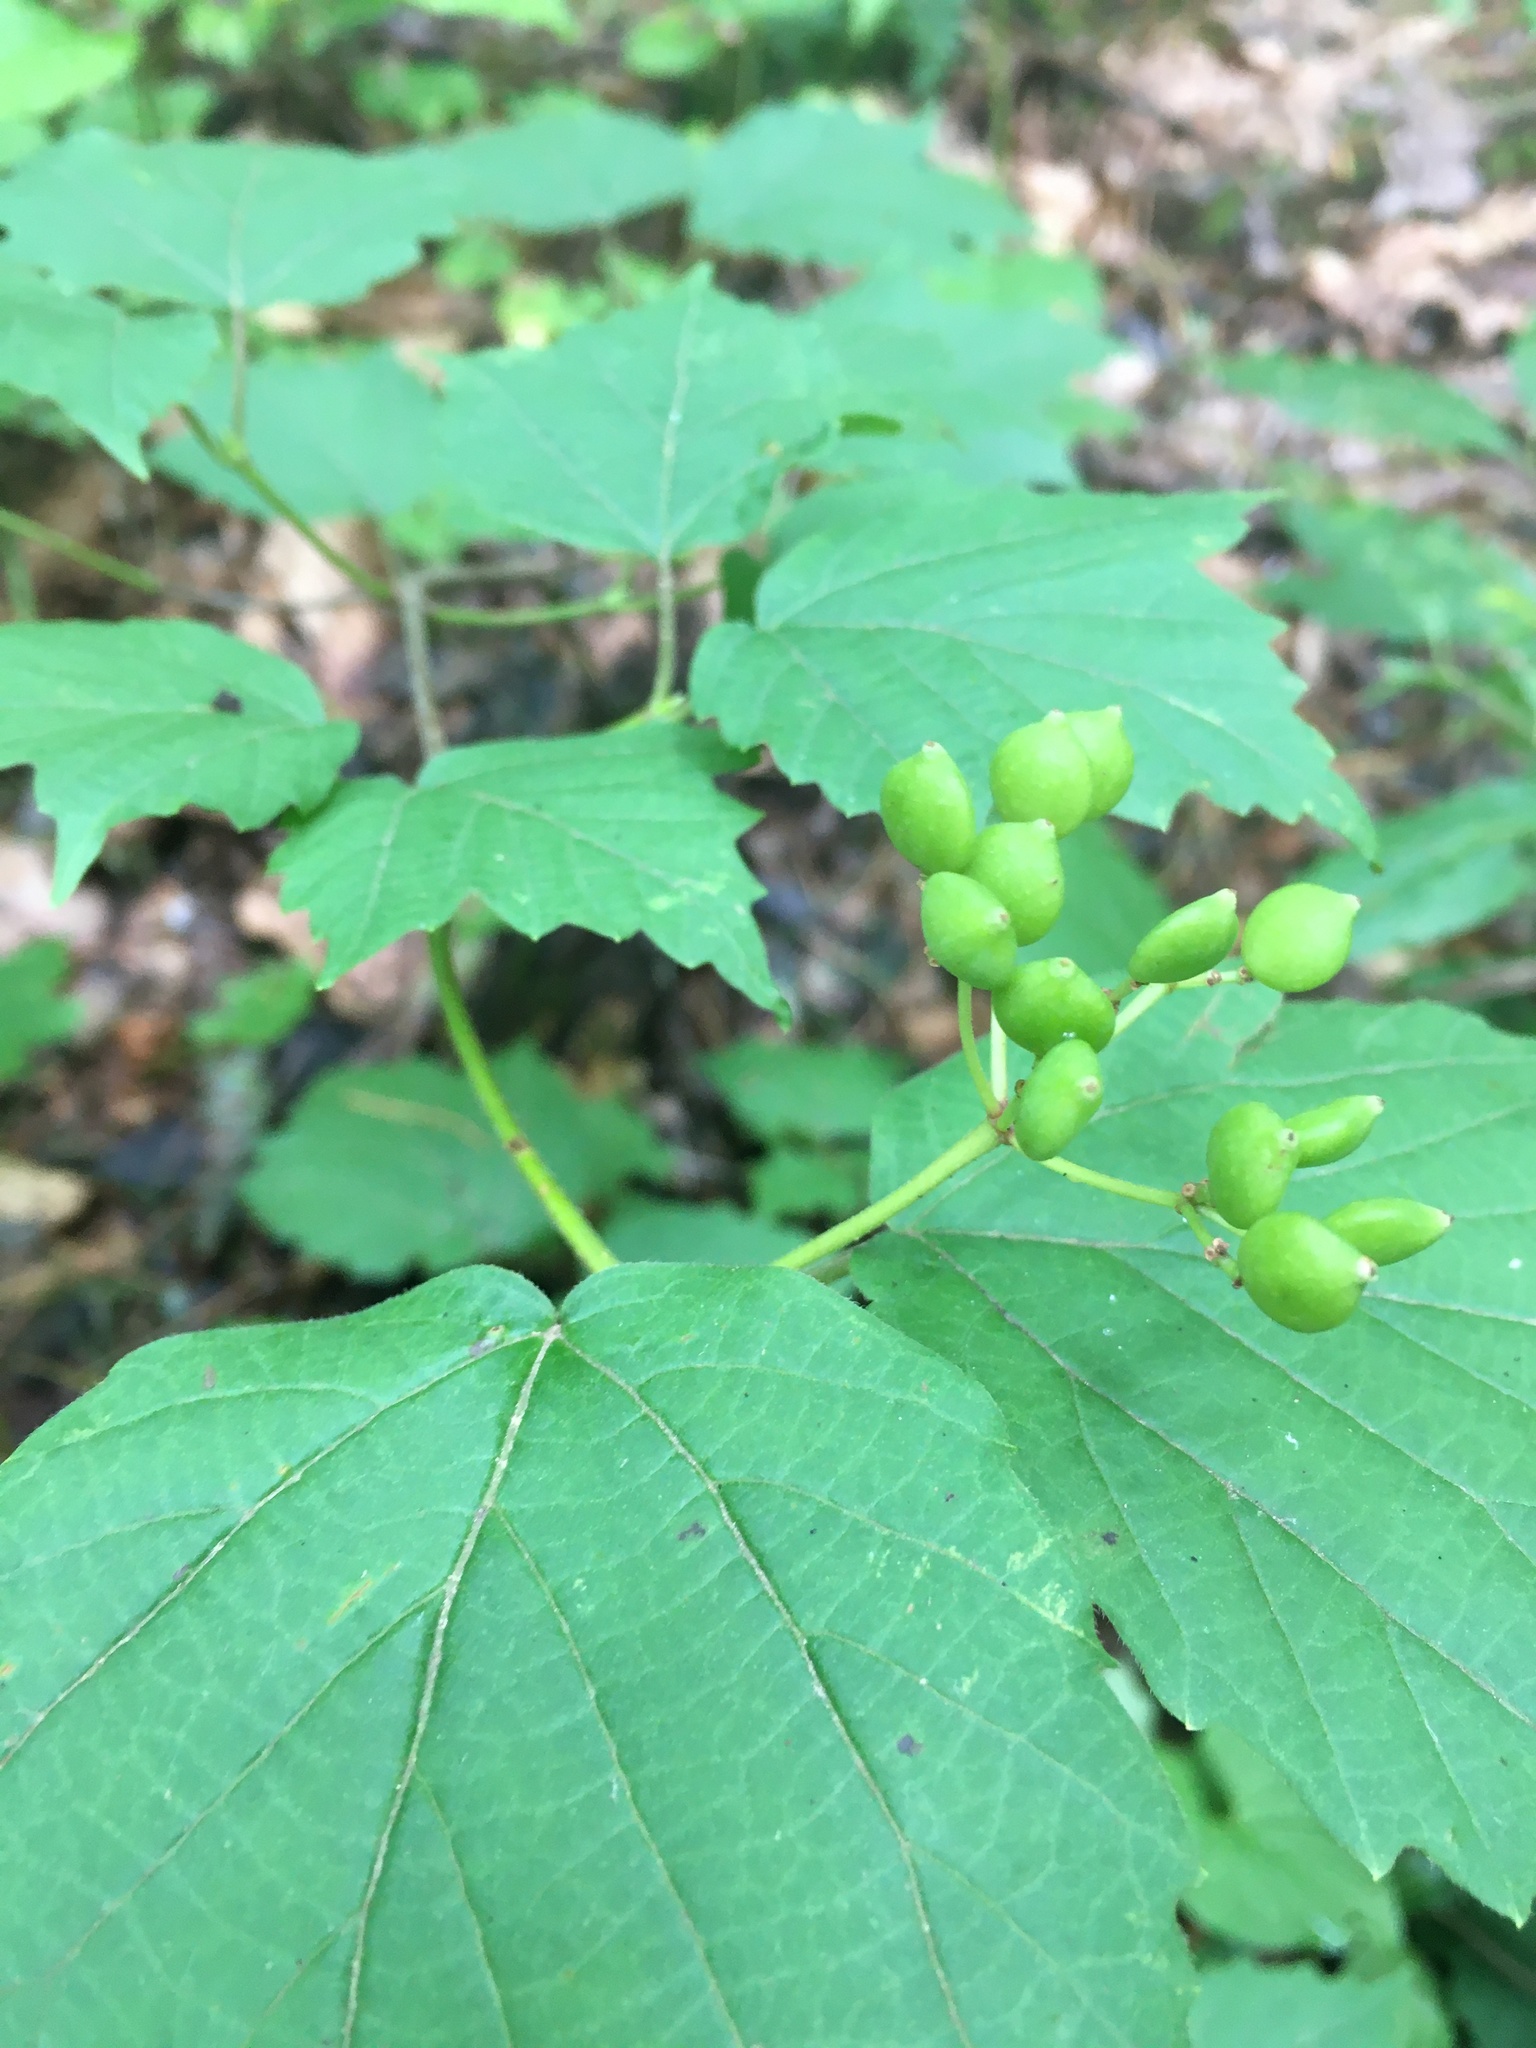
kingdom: Plantae
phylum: Tracheophyta
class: Magnoliopsida
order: Dipsacales
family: Viburnaceae
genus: Viburnum
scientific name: Viburnum acerifolium
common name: Dockmackie
